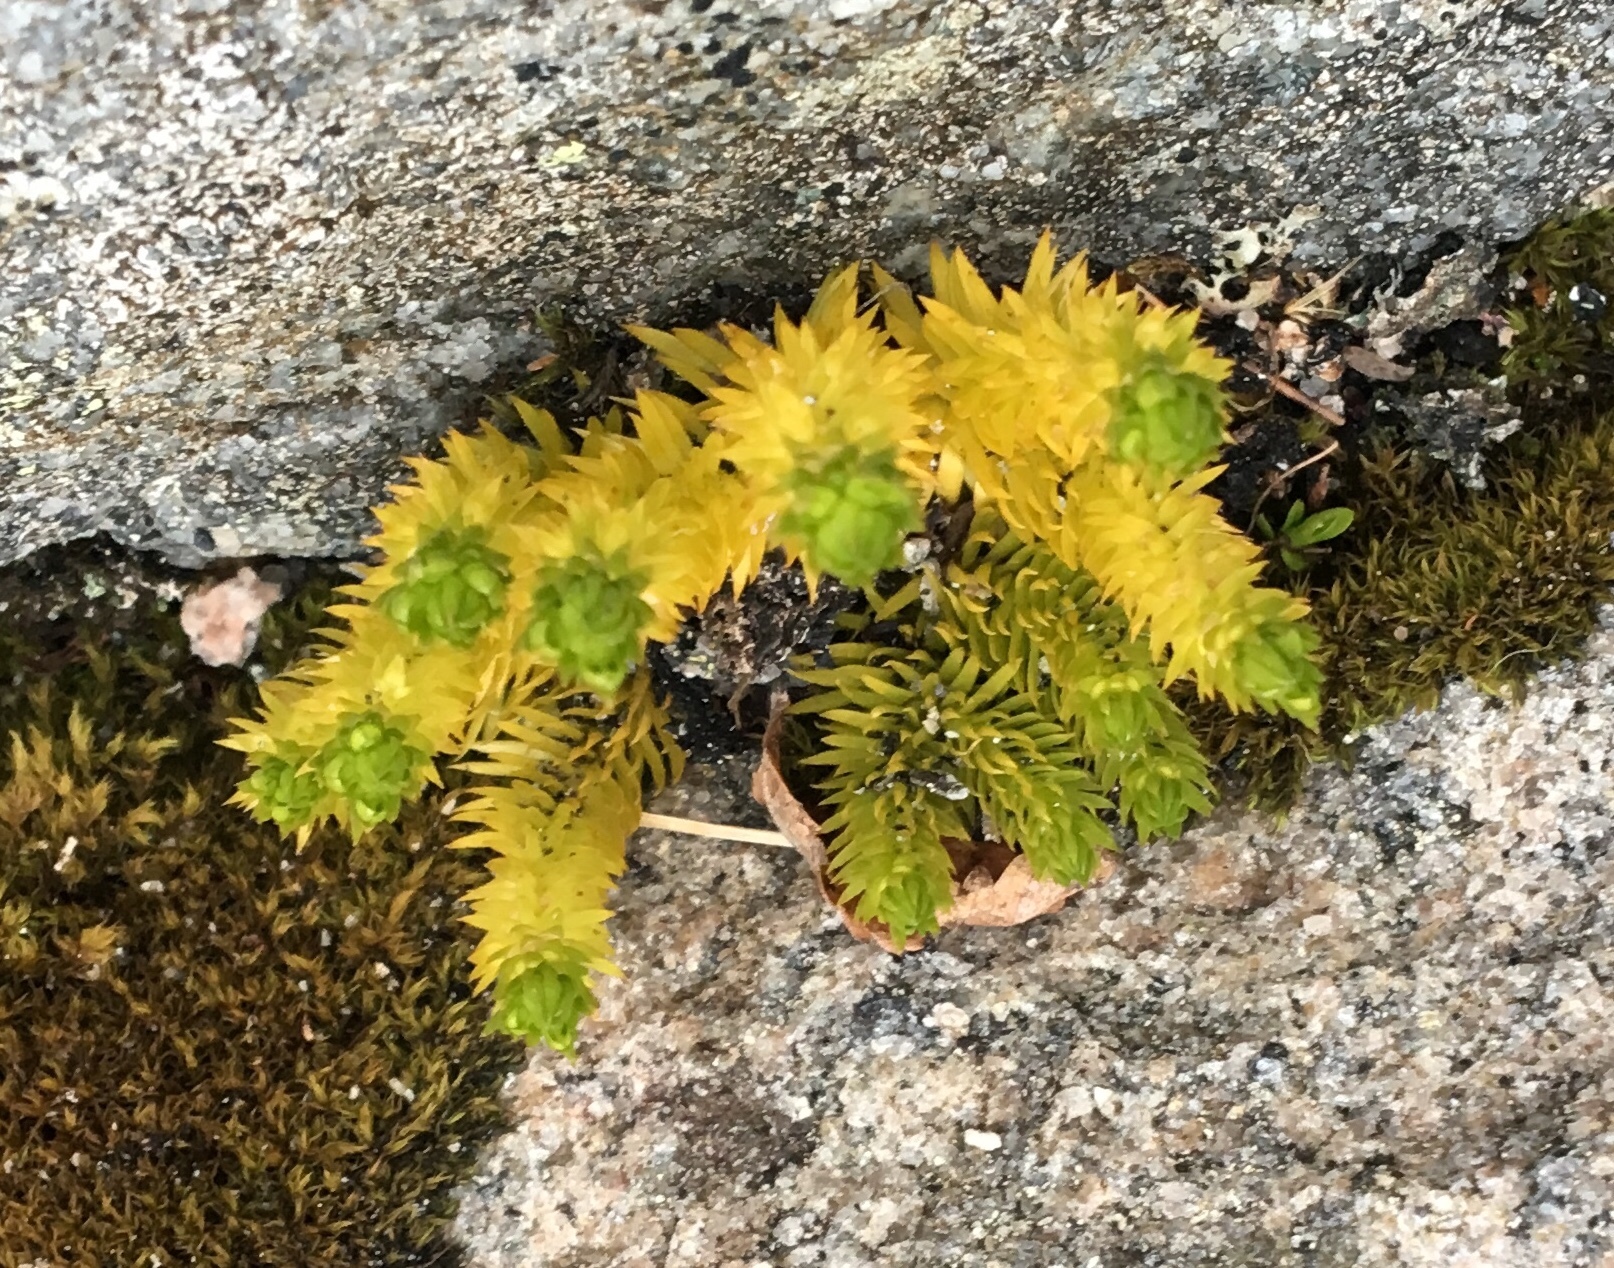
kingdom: Plantae
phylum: Tracheophyta
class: Lycopodiopsida
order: Lycopodiales
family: Lycopodiaceae
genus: Huperzia
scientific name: Huperzia selago
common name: Northern firmoss
